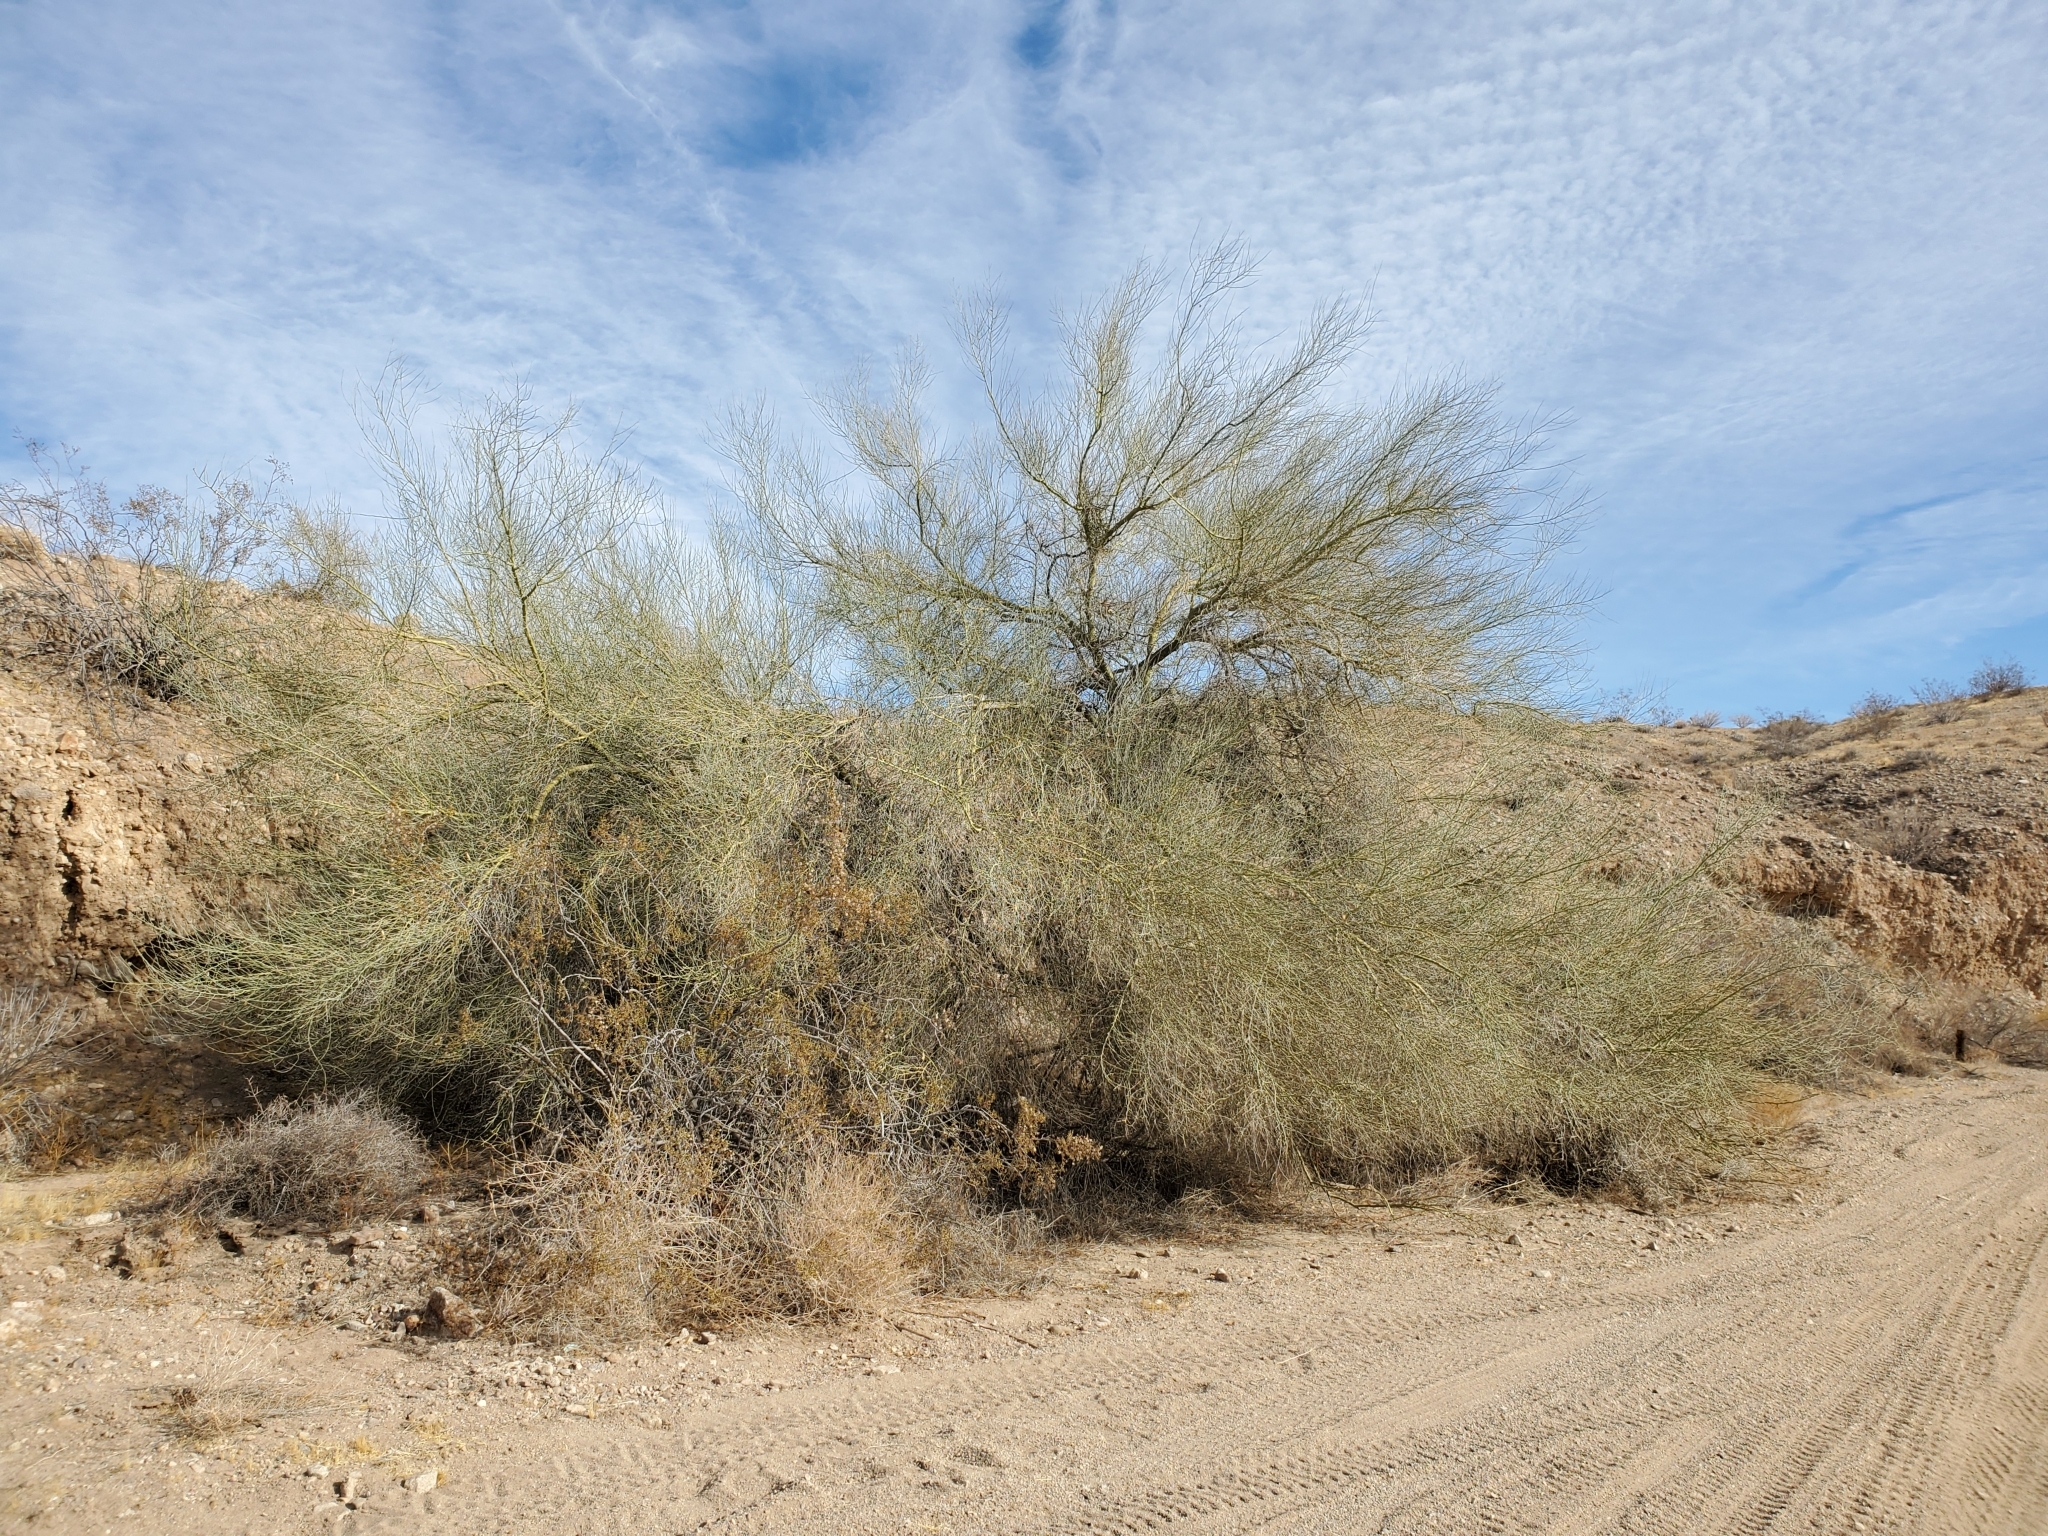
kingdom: Plantae
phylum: Tracheophyta
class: Magnoliopsida
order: Fabales
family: Fabaceae
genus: Parkinsonia
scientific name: Parkinsonia florida
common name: Blue paloverde
